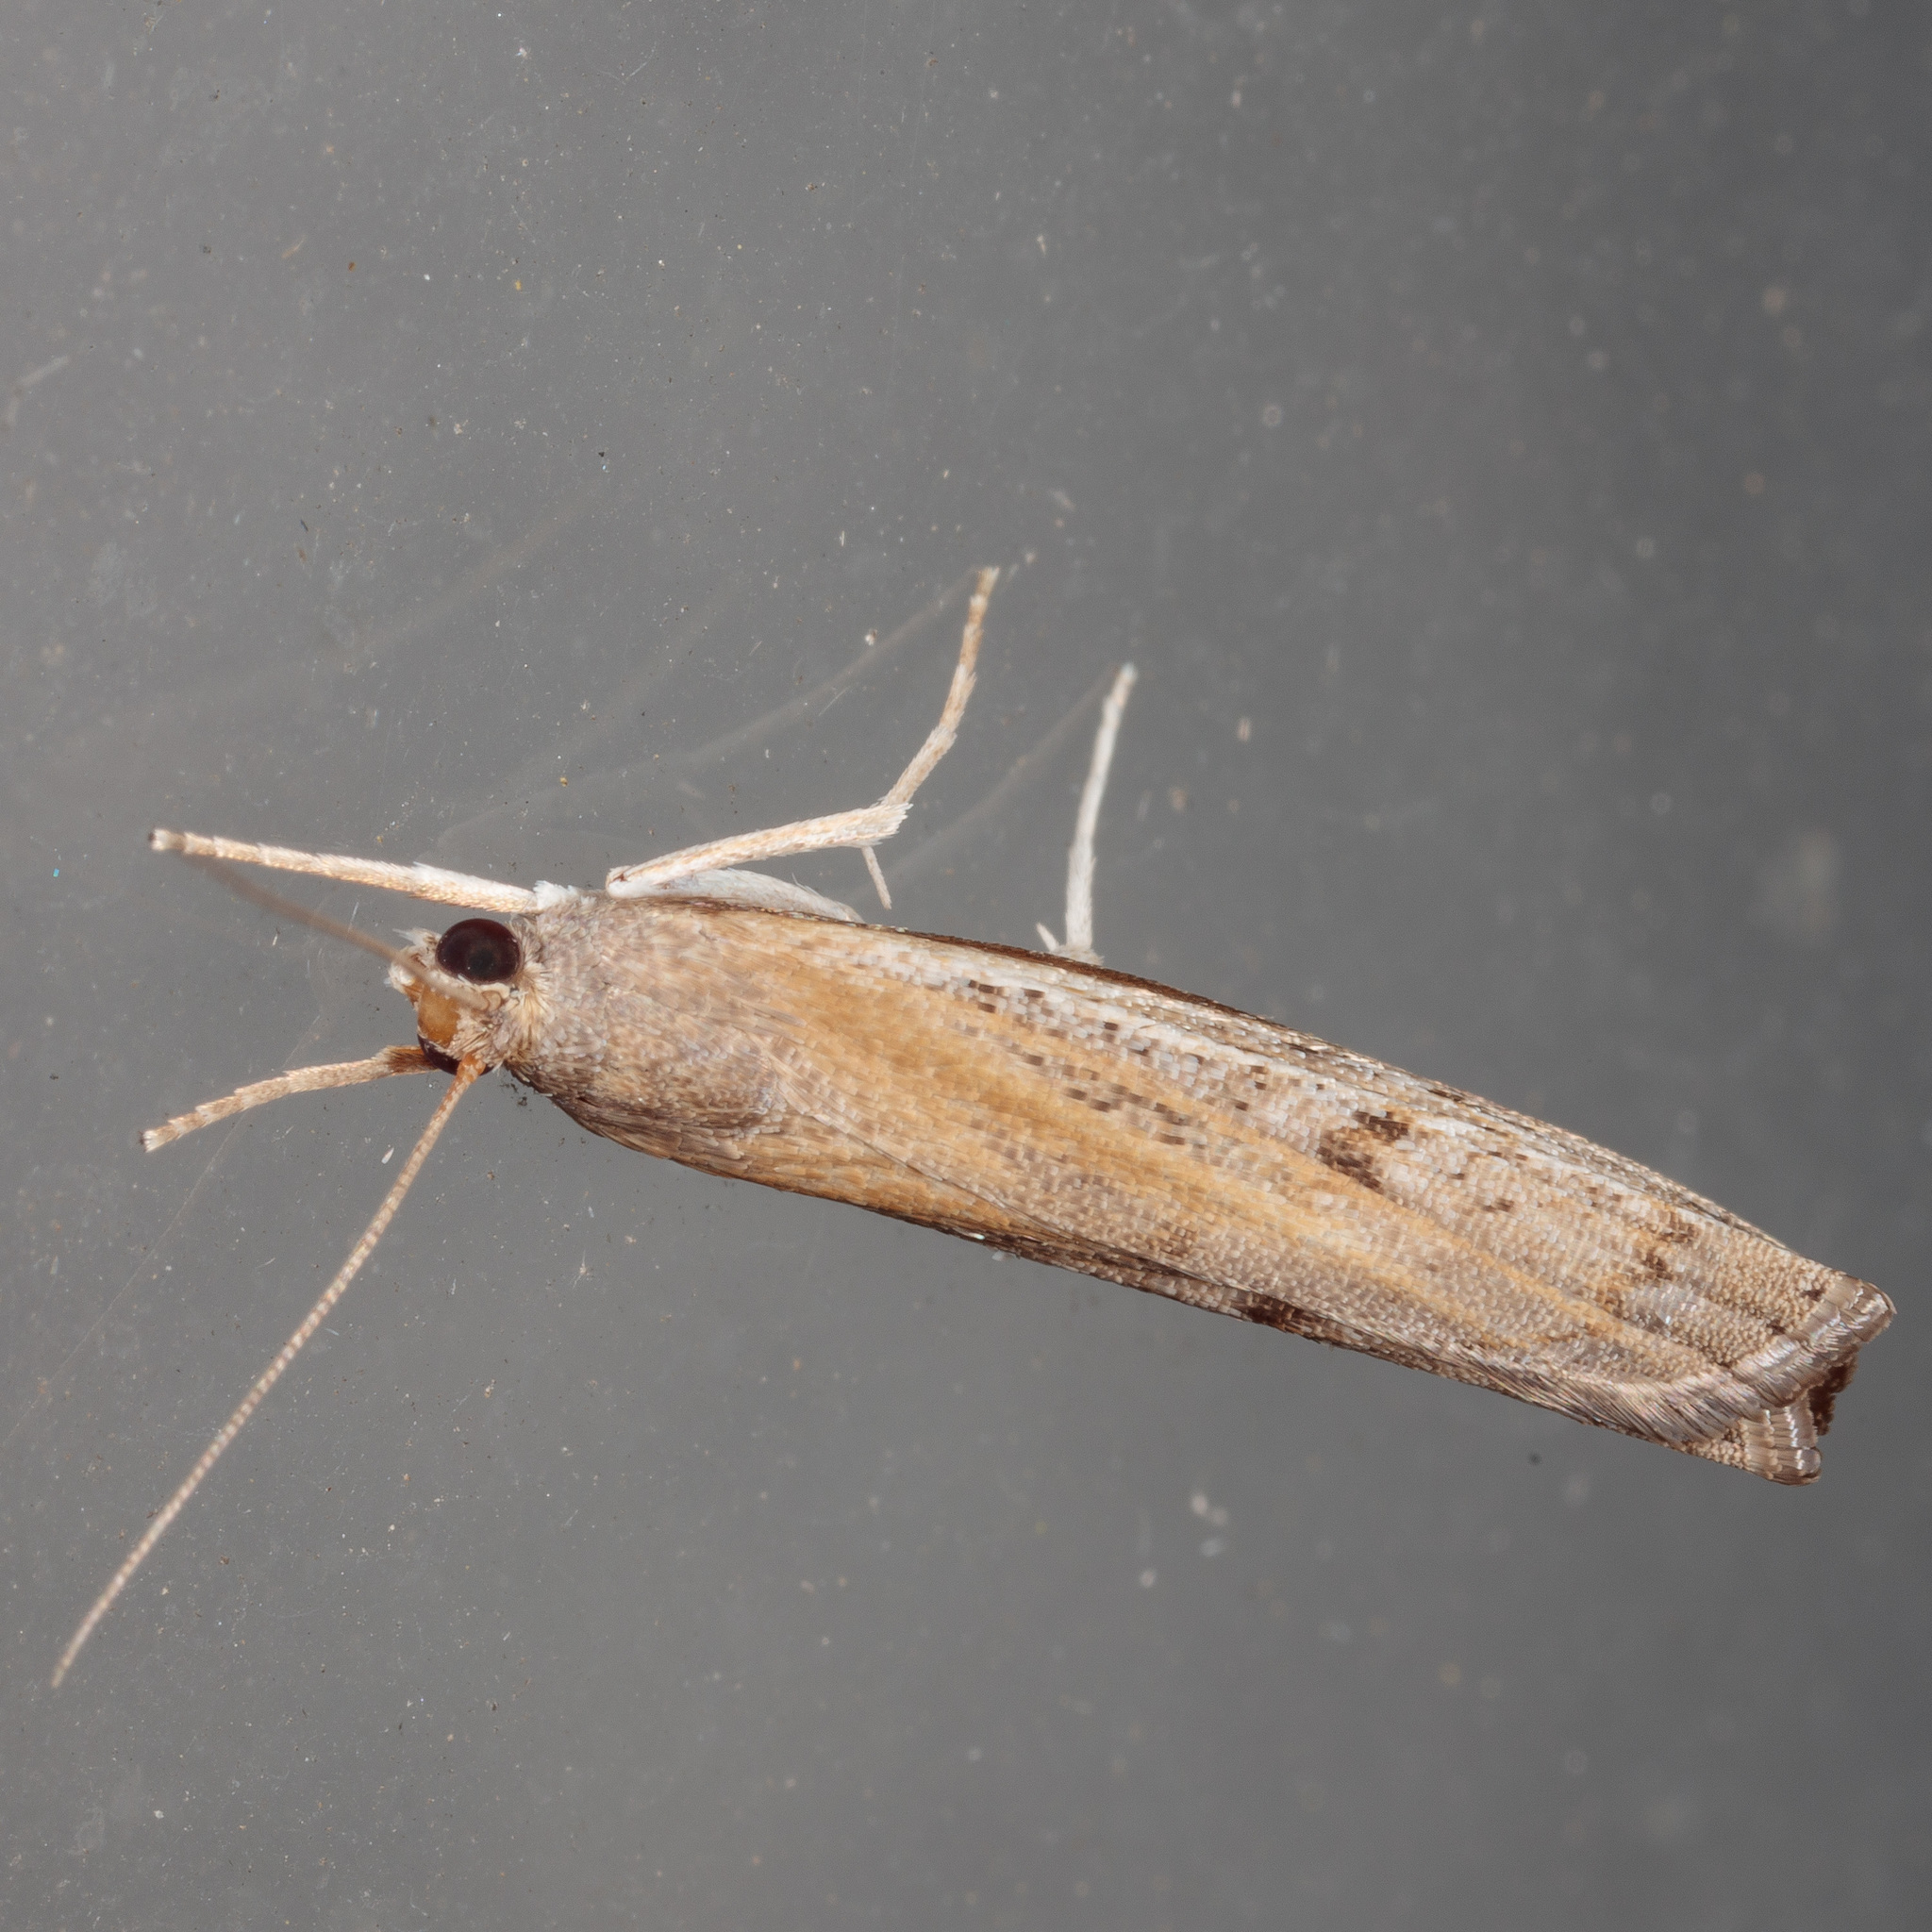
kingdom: Animalia
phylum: Arthropoda
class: Insecta
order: Lepidoptera
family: Crambidae
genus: Fissicrambus
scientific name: Fissicrambus hemiochrellus
